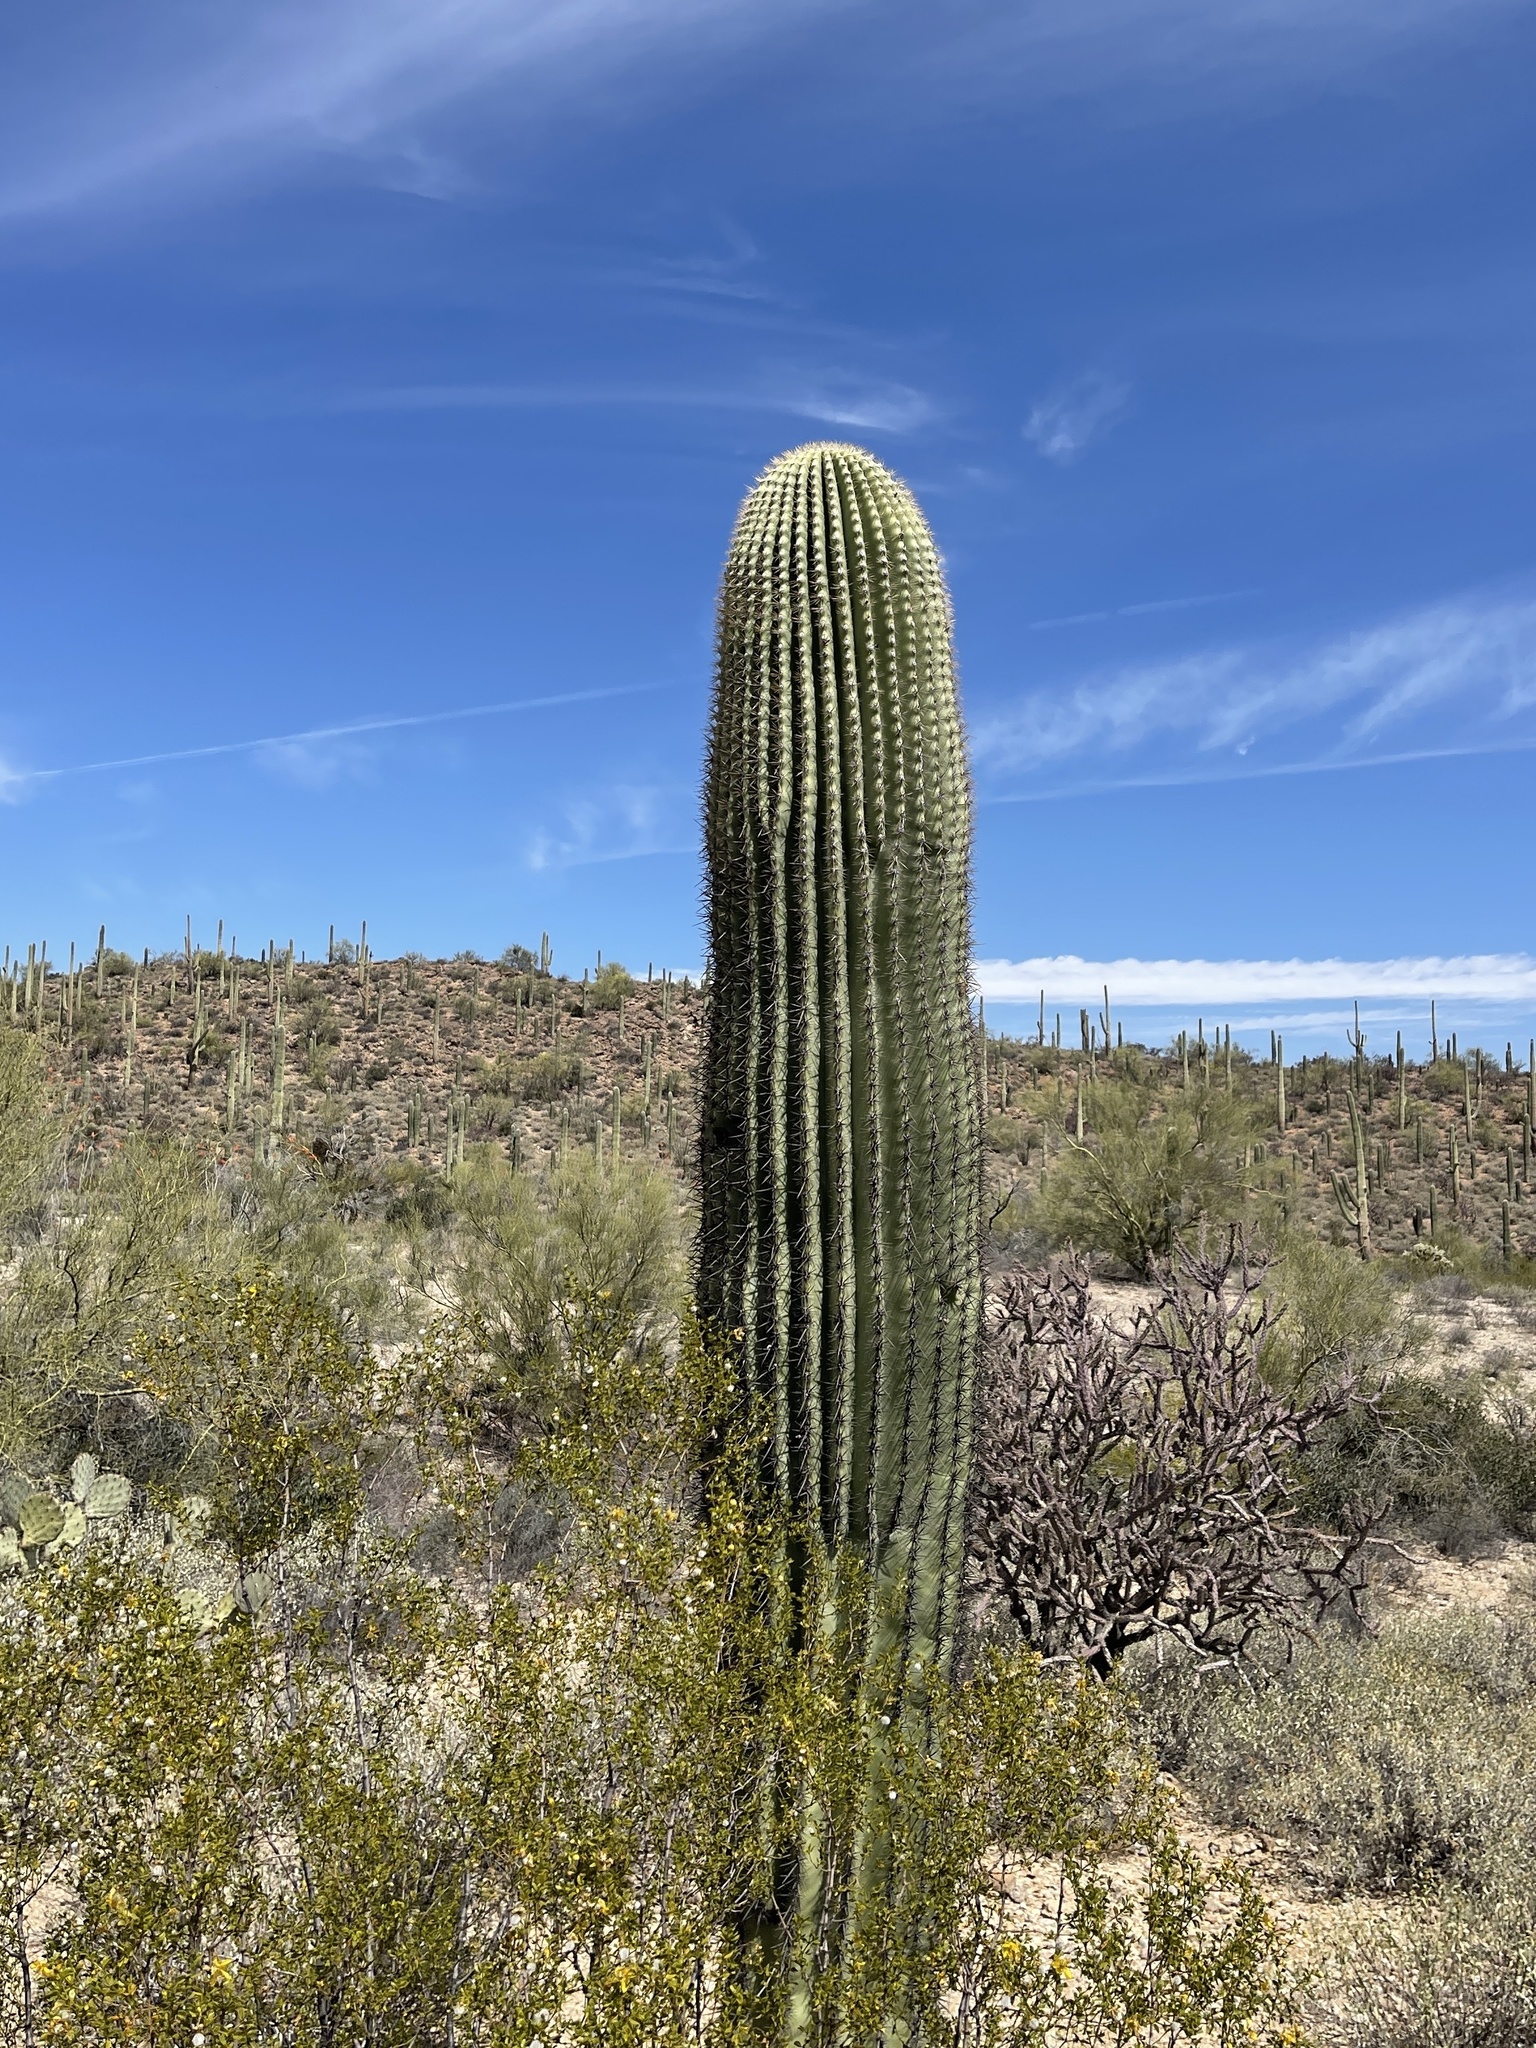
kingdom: Plantae
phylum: Tracheophyta
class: Magnoliopsida
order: Caryophyllales
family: Cactaceae
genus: Carnegiea
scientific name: Carnegiea gigantea
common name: Saguaro
